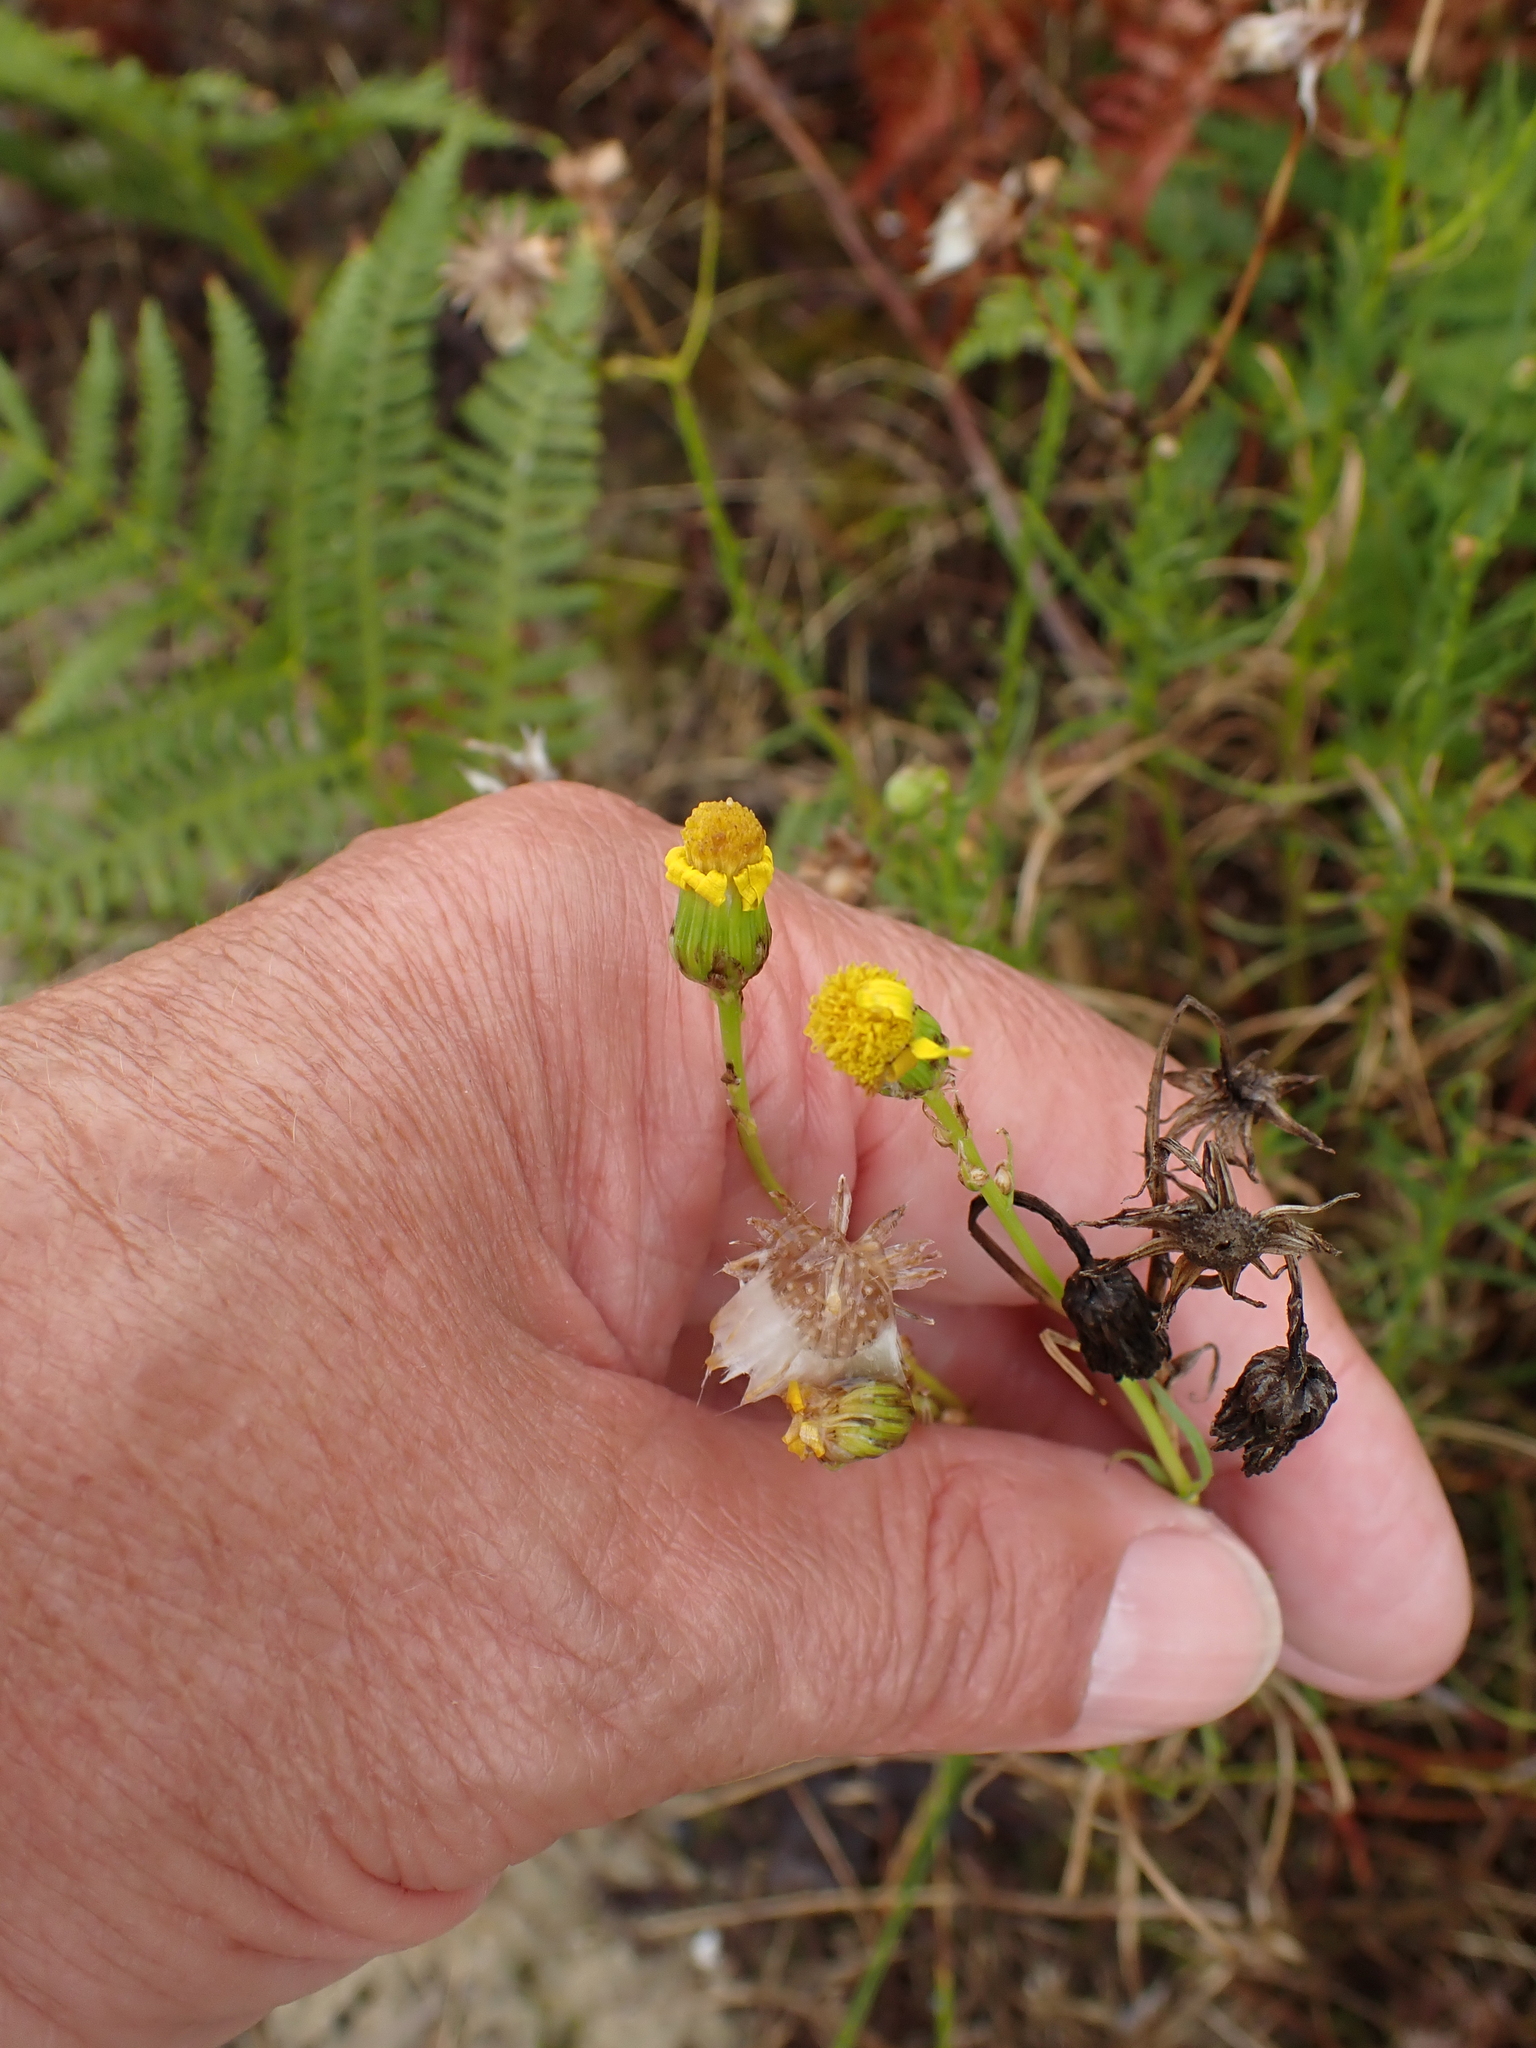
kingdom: Plantae
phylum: Tracheophyta
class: Magnoliopsida
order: Asterales
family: Asteraceae
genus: Senecio
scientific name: Senecio inaequidens
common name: Narrow-leaved ragwort
